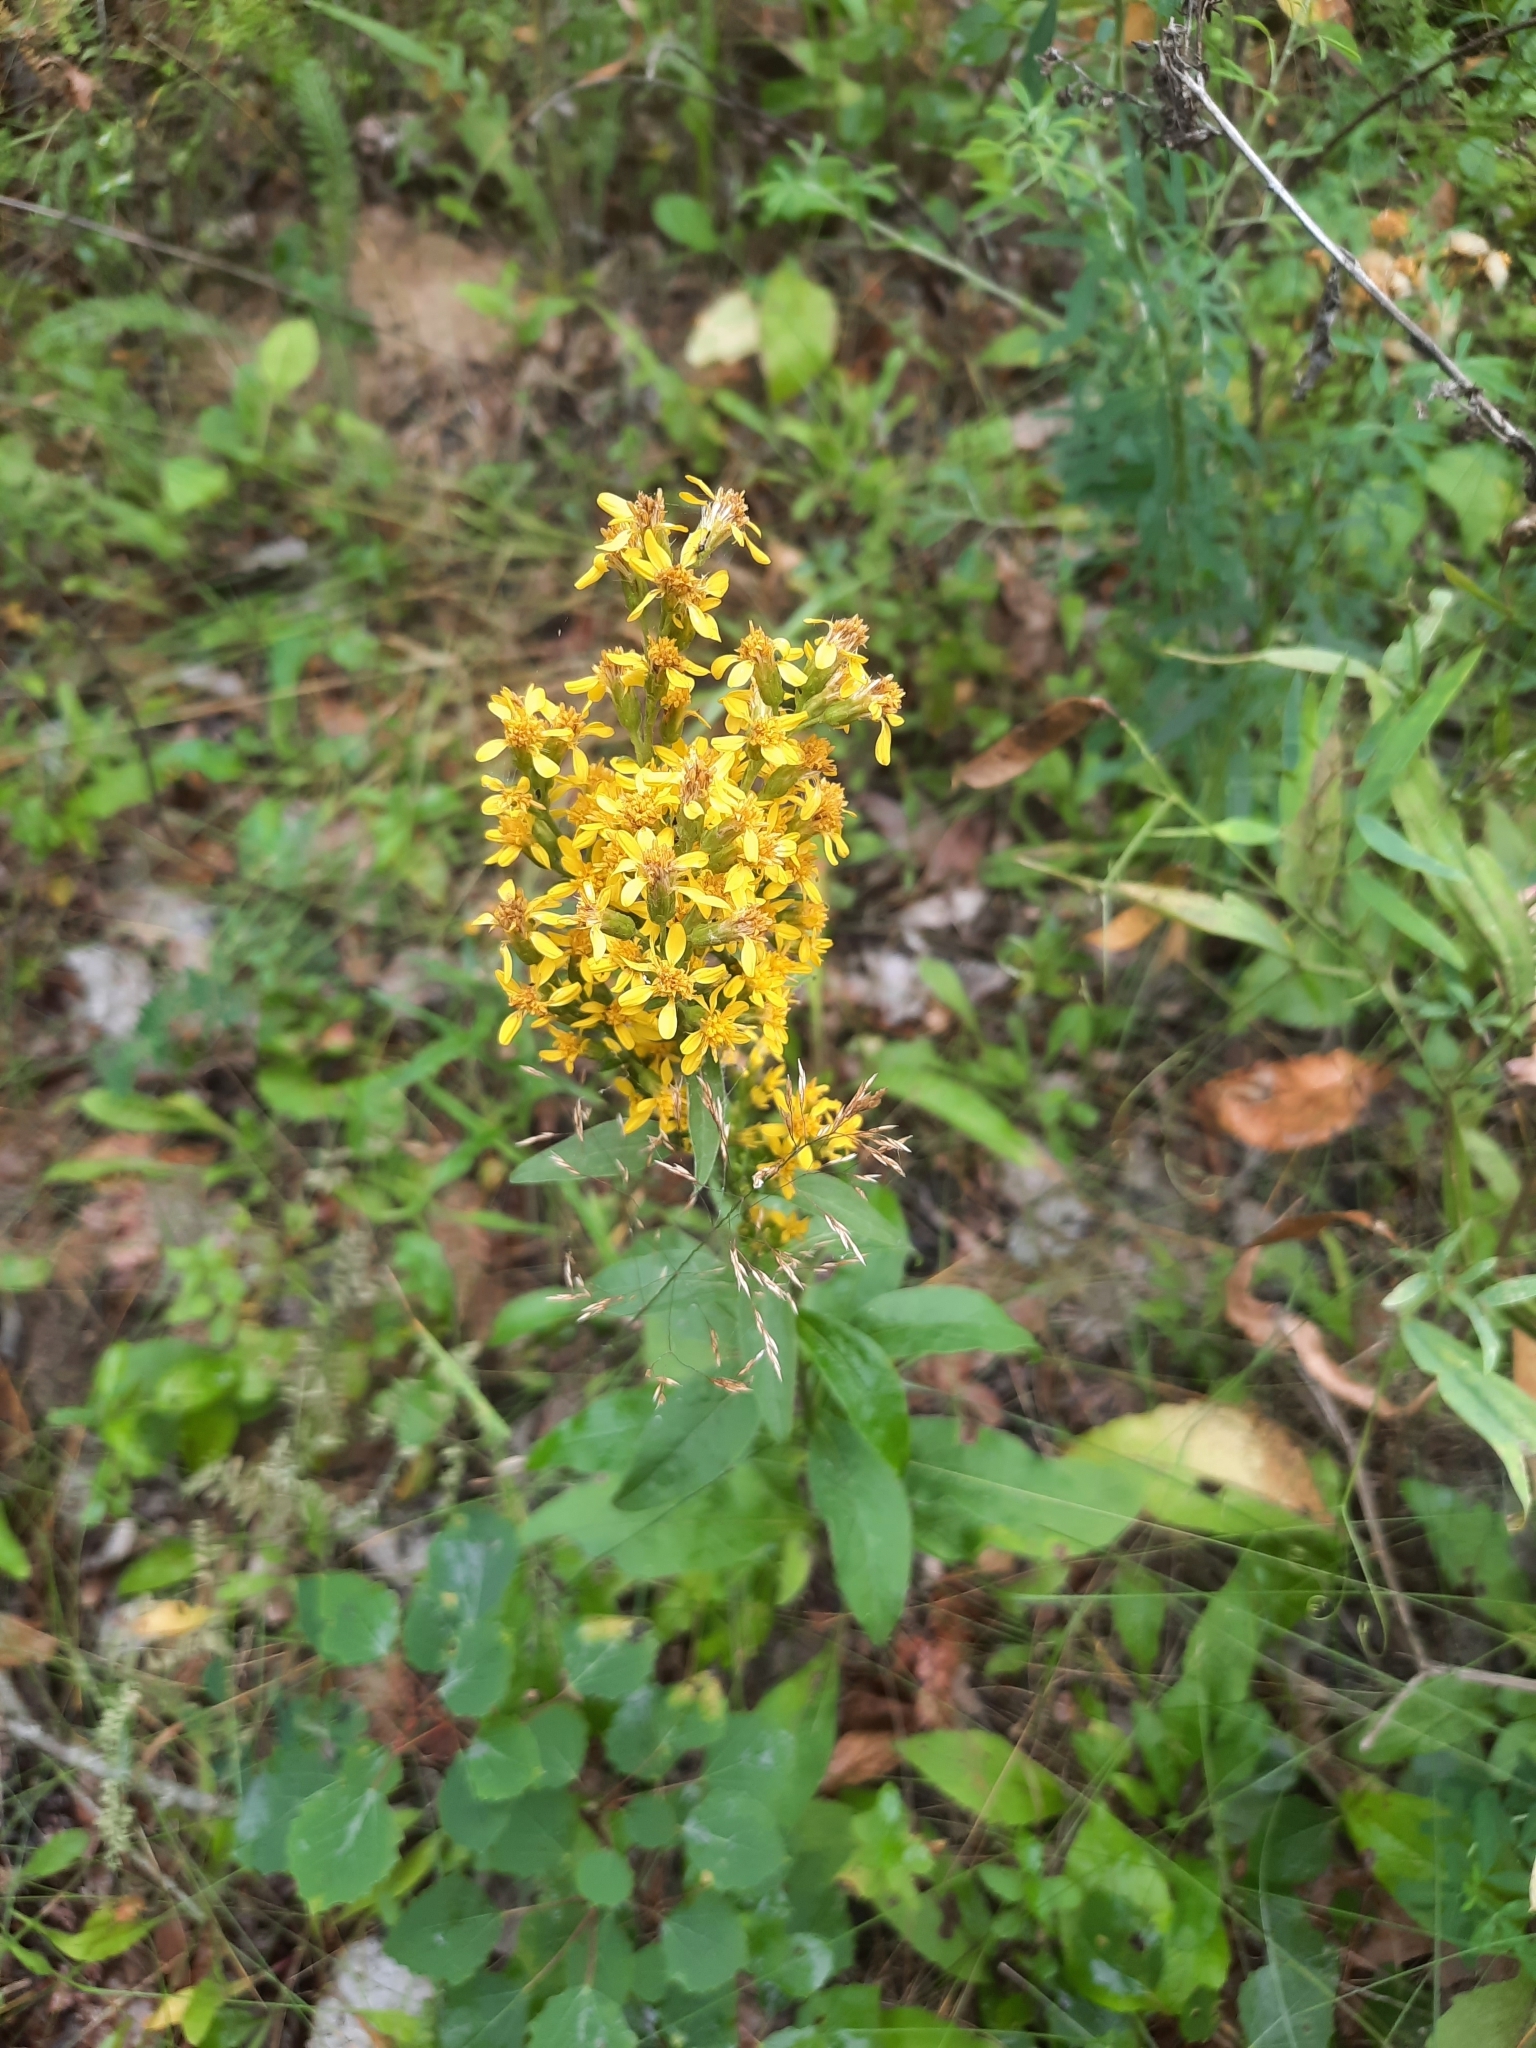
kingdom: Plantae
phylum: Tracheophyta
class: Magnoliopsida
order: Asterales
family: Asteraceae
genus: Solidago
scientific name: Solidago virgaurea
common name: Goldenrod
